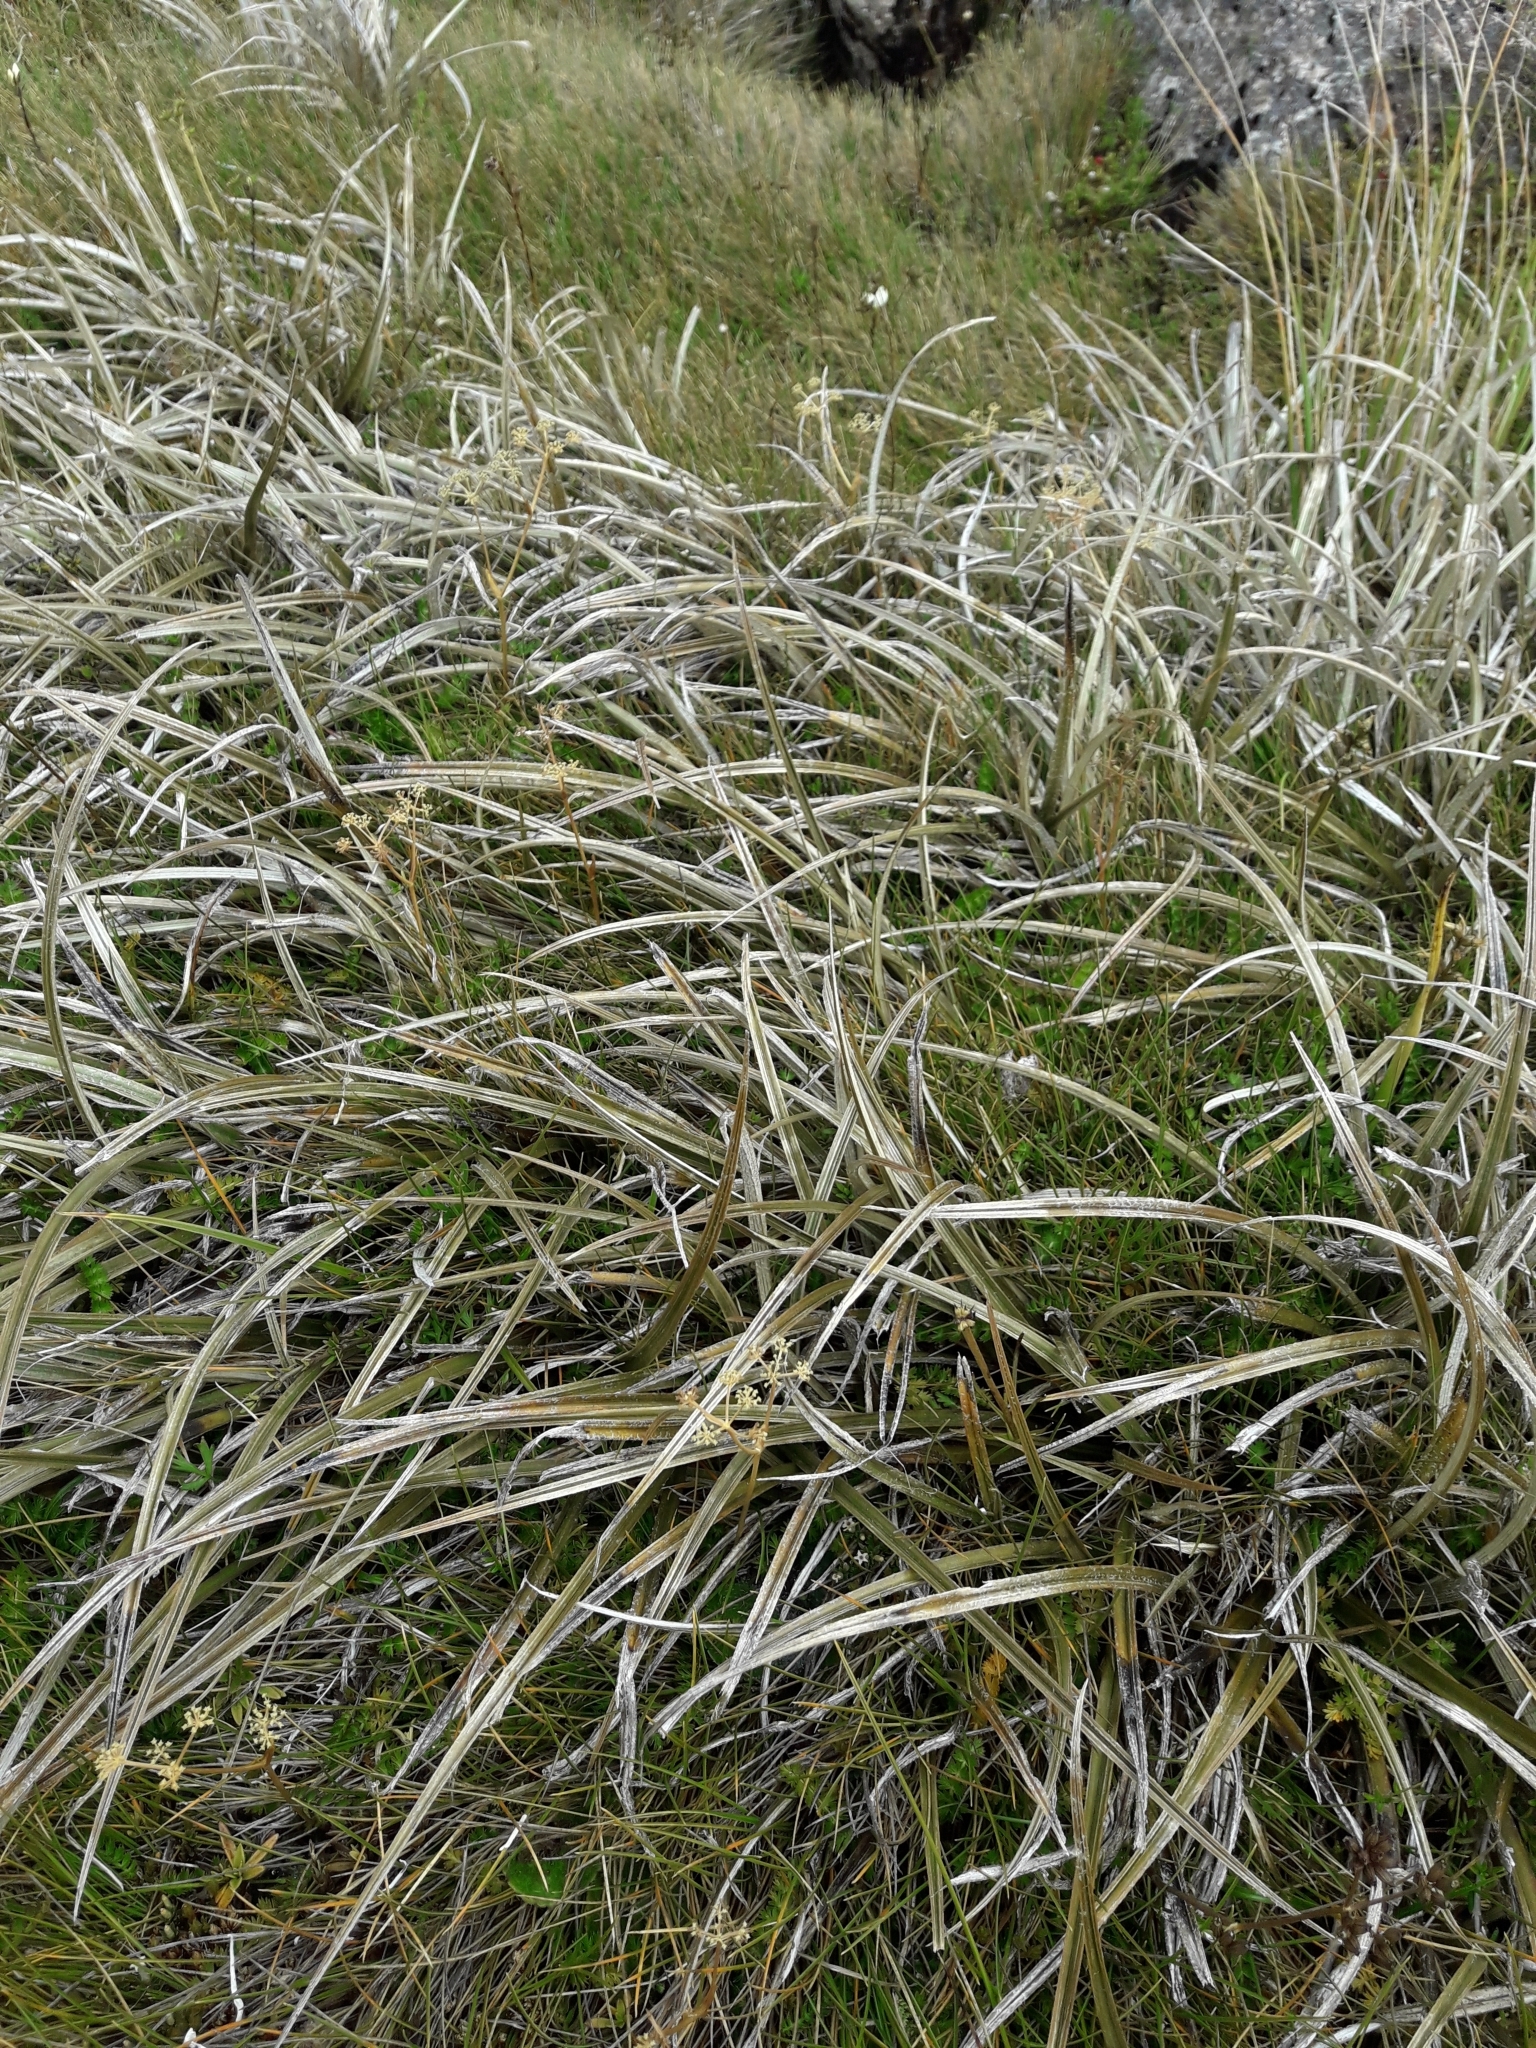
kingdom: Plantae
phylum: Tracheophyta
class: Liliopsida
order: Asparagales
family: Asteliaceae
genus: Astelia
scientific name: Astelia graminea
